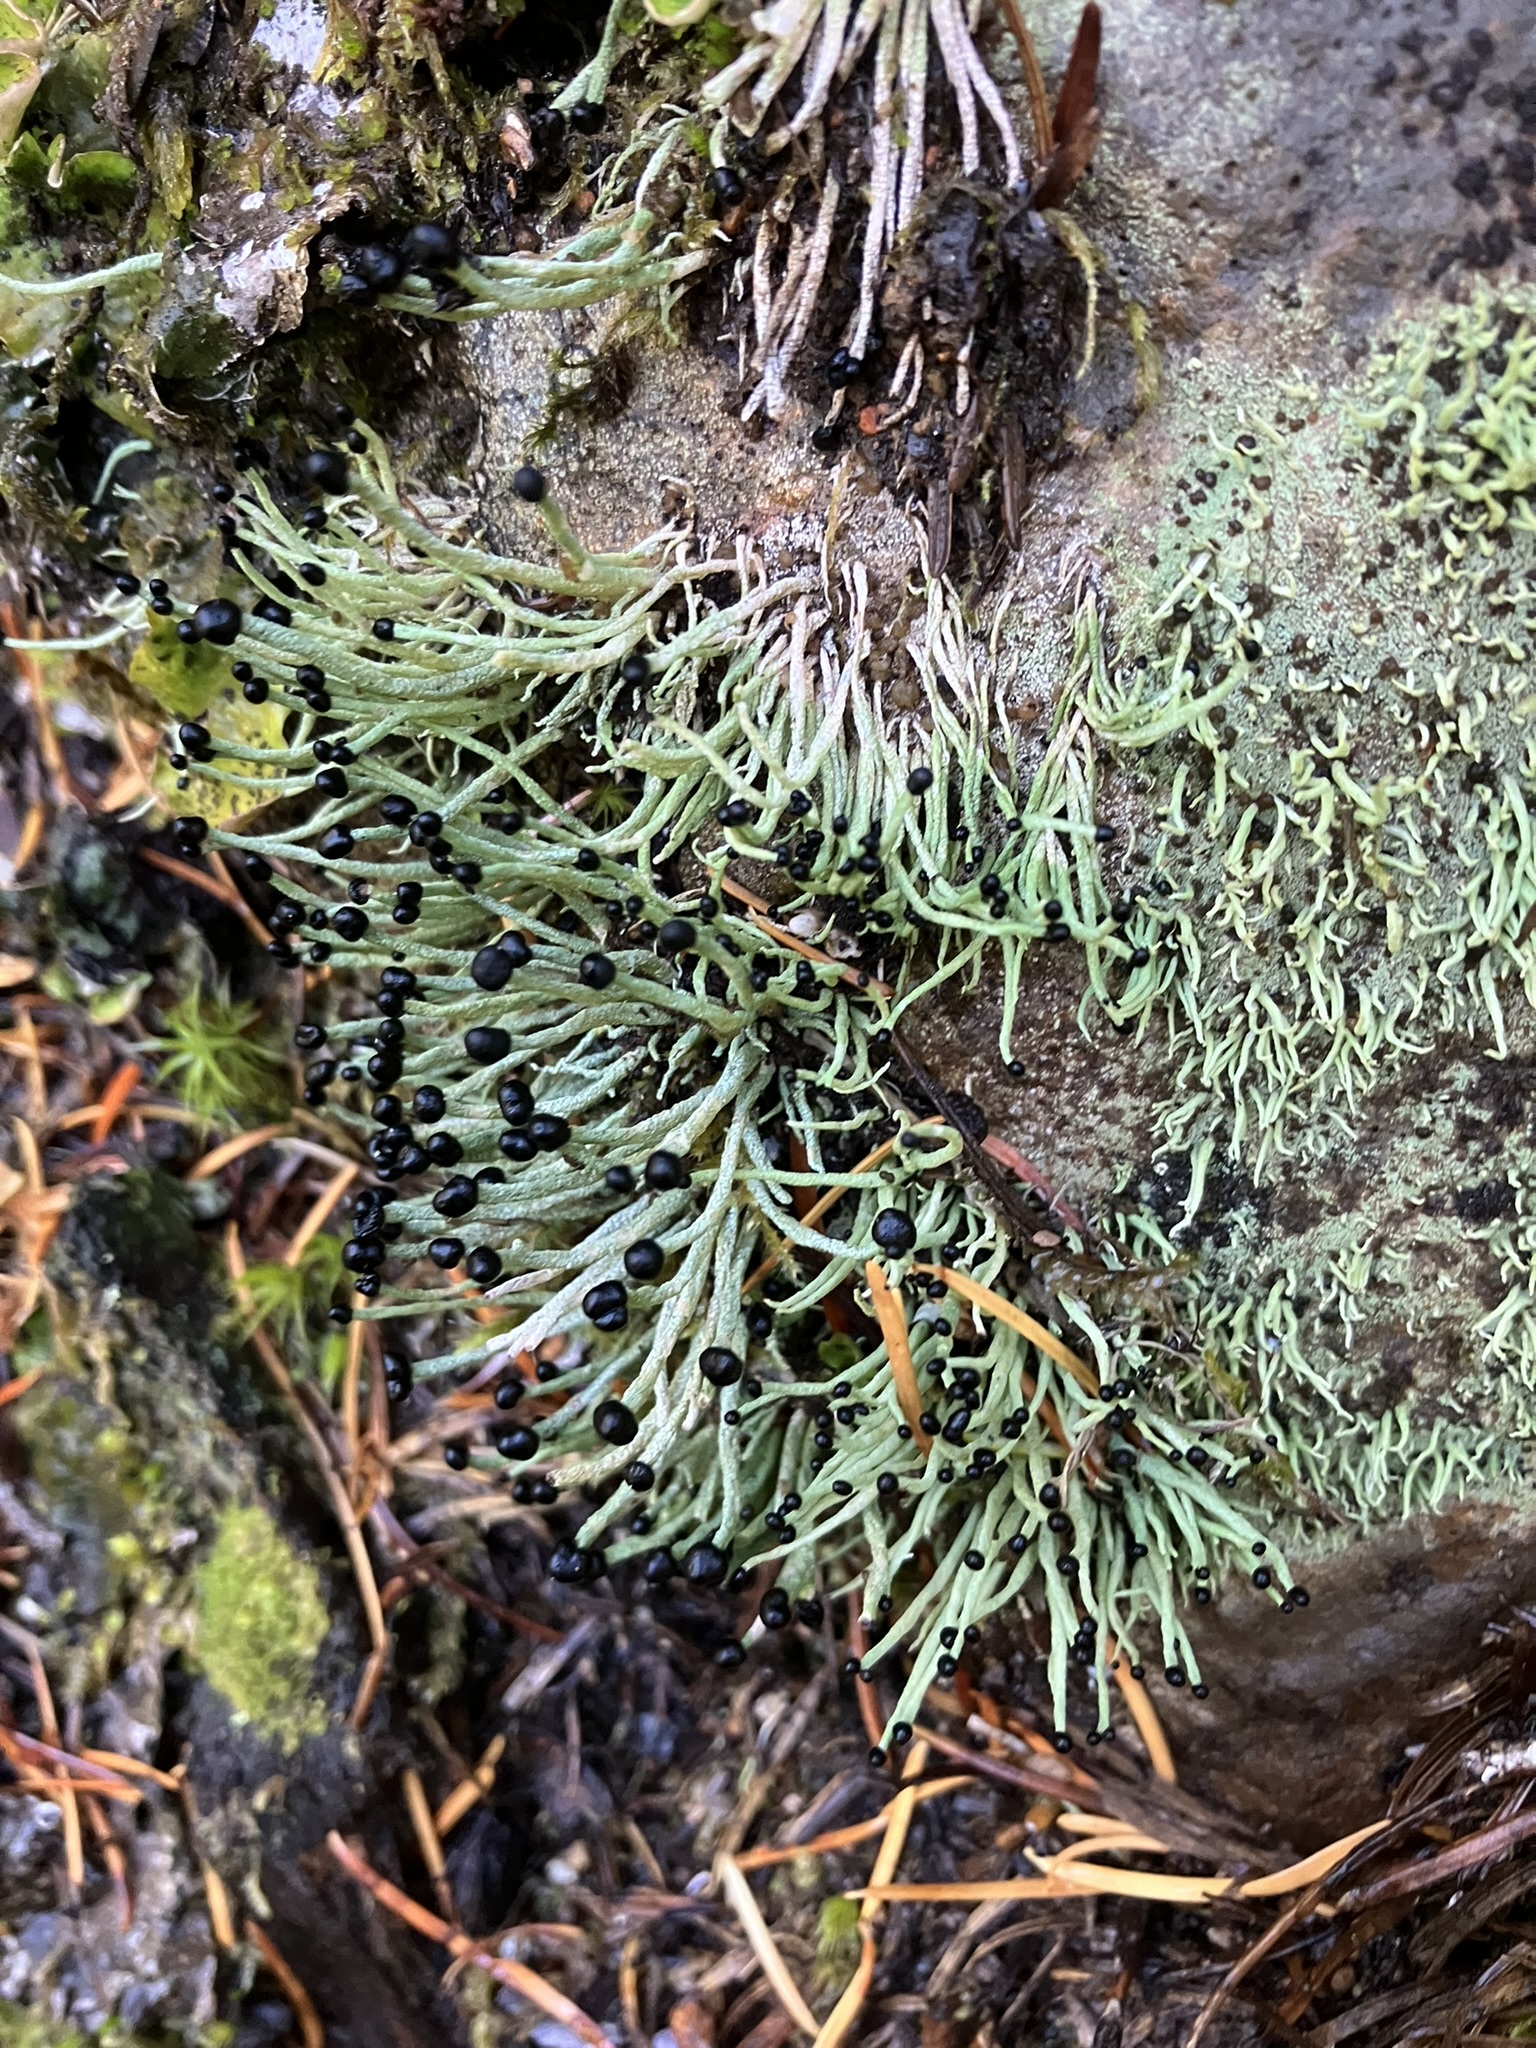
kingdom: Fungi
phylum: Ascomycota
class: Lecanoromycetes
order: Lecanorales
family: Cladoniaceae
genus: Pilophorus
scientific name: Pilophorus acicularis
